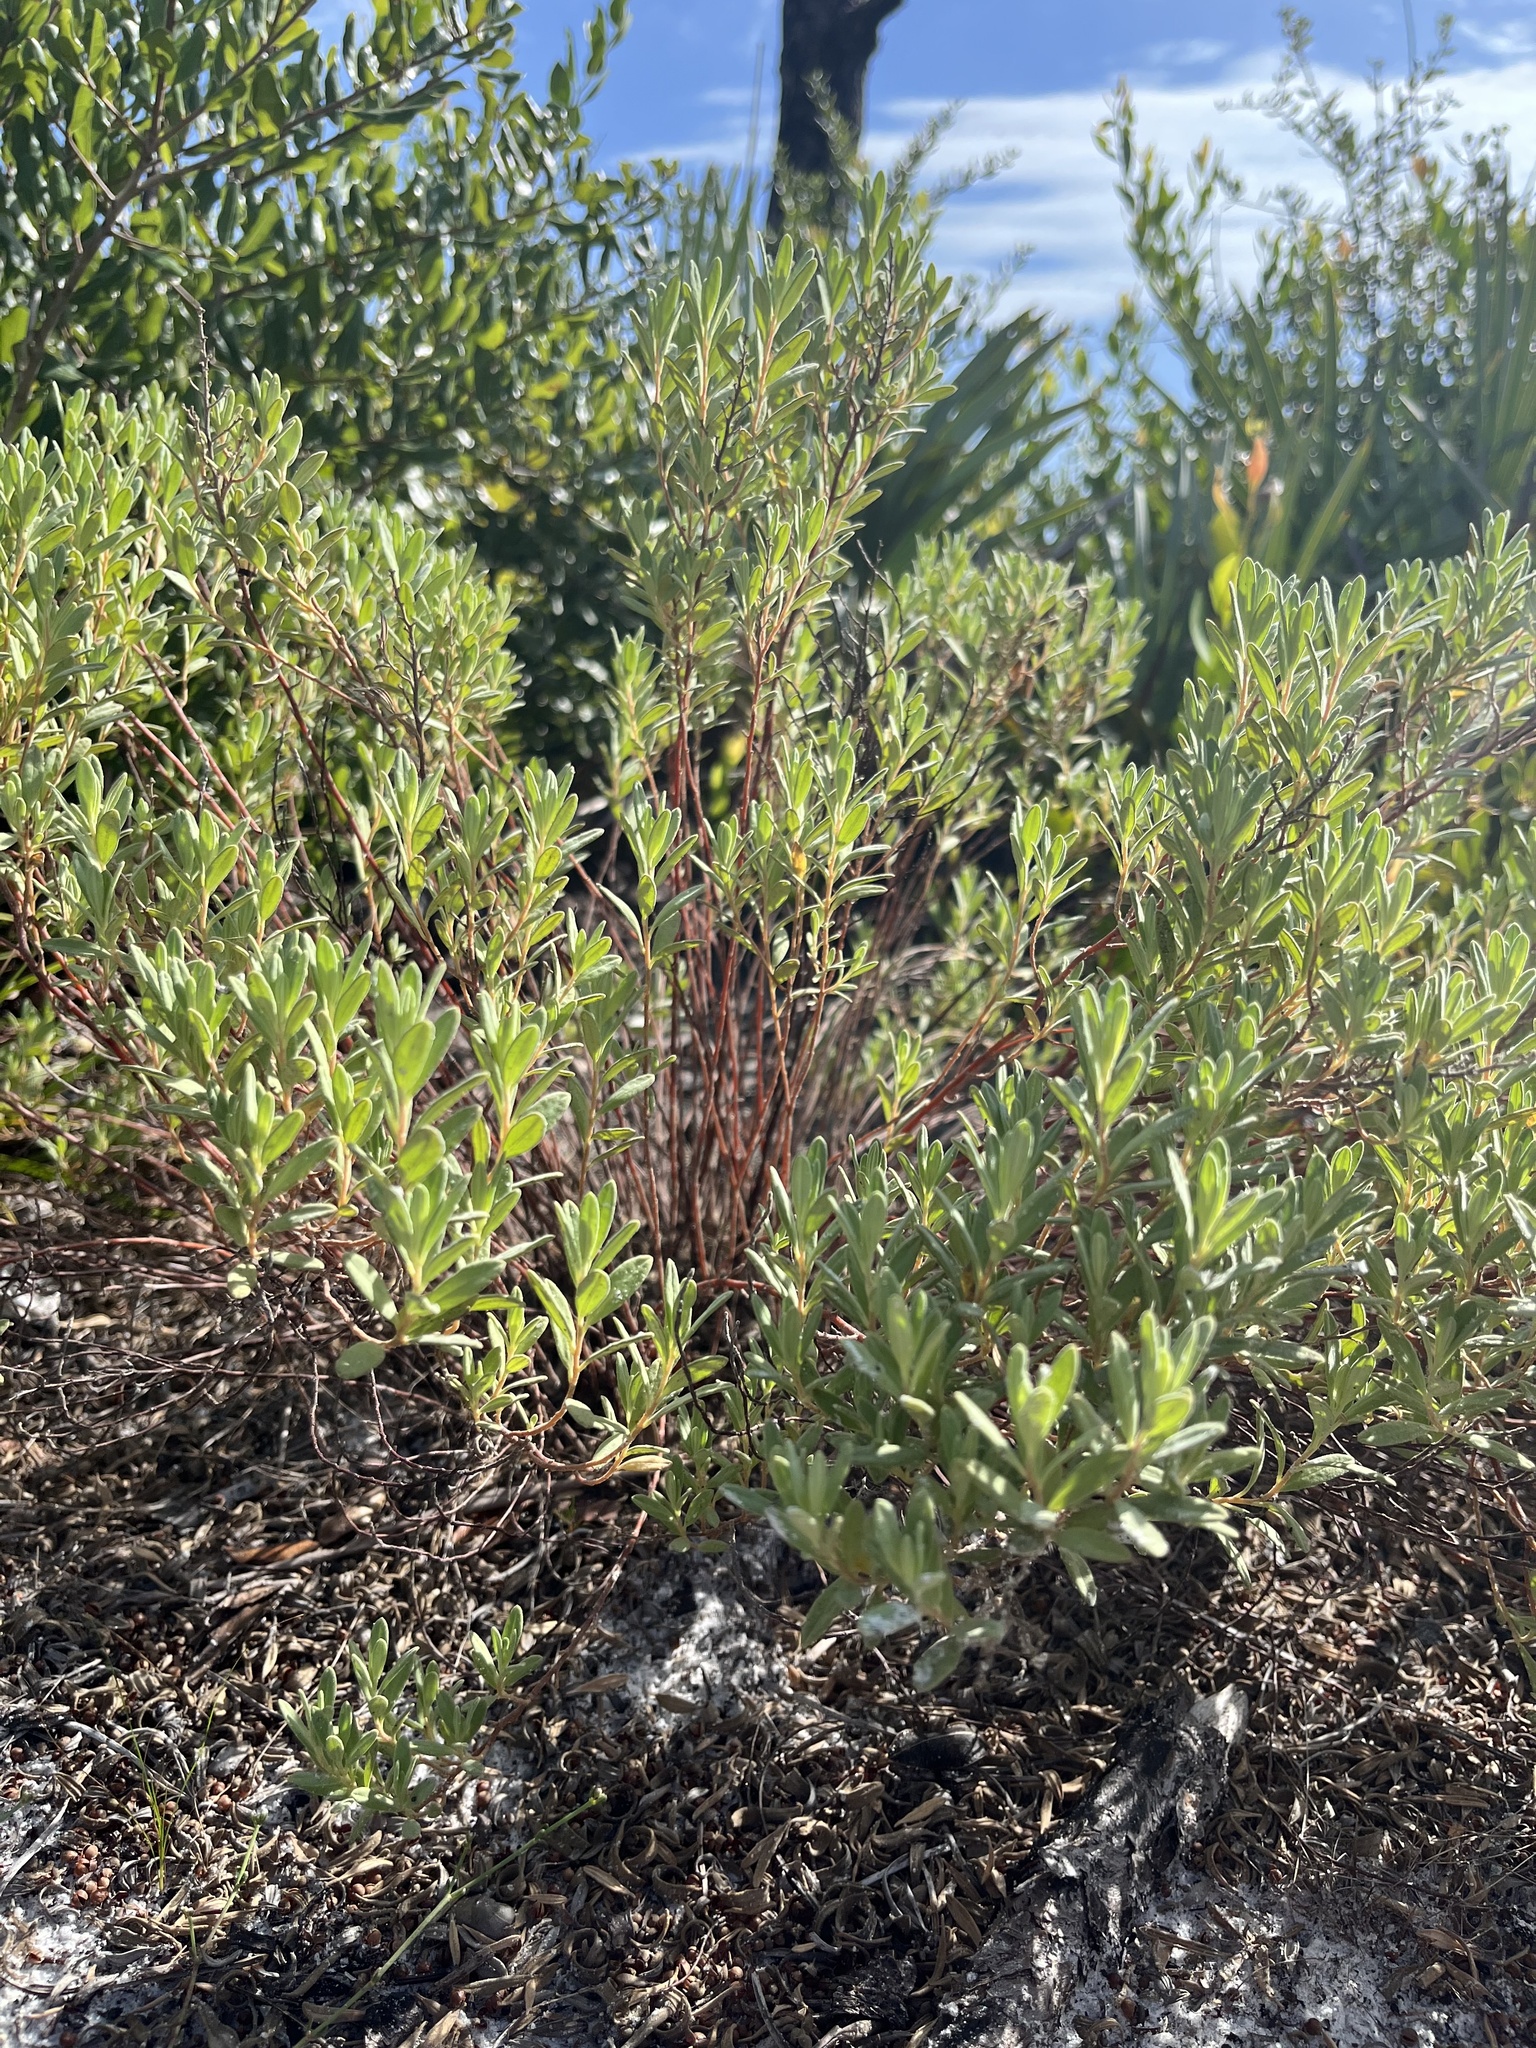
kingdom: Plantae
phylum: Tracheophyta
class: Magnoliopsida
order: Malvales
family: Cistaceae
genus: Crocanthemum
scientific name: Crocanthemum nashii
